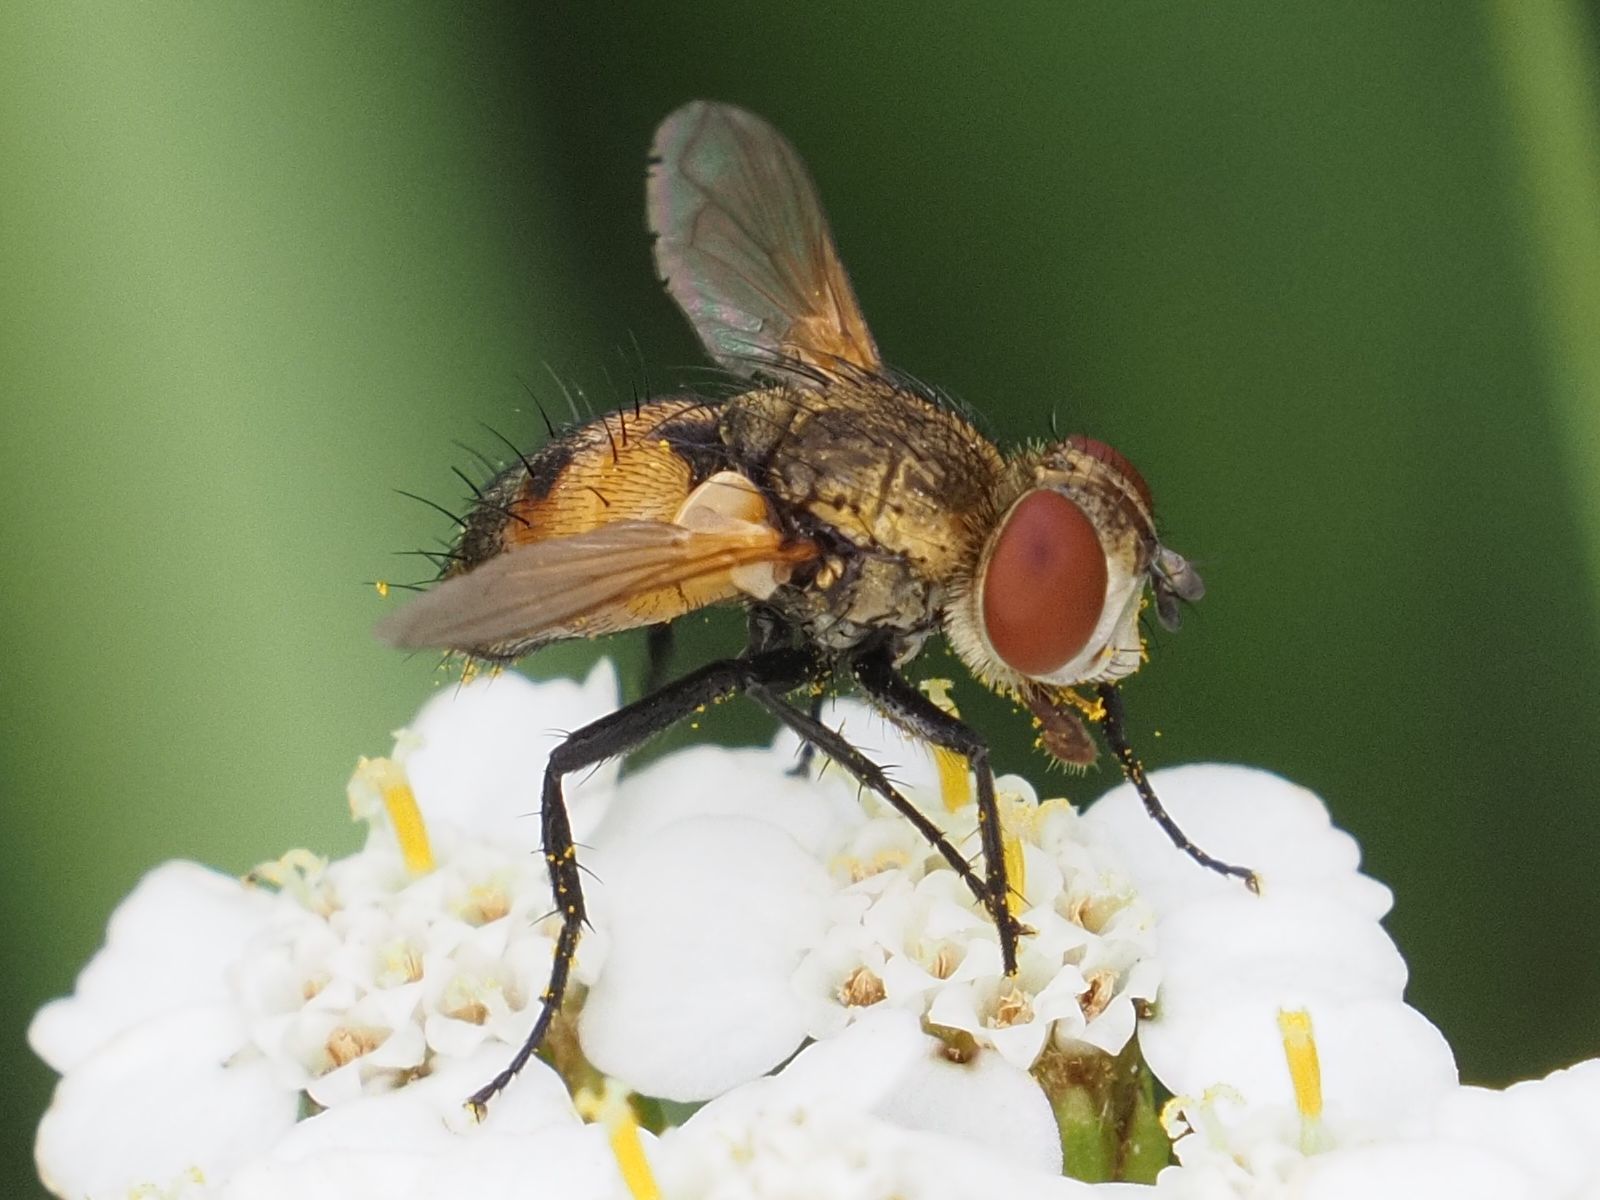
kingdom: Animalia
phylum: Arthropoda
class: Insecta
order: Diptera
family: Tachinidae
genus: Eliozeta
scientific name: Eliozeta pellucens
